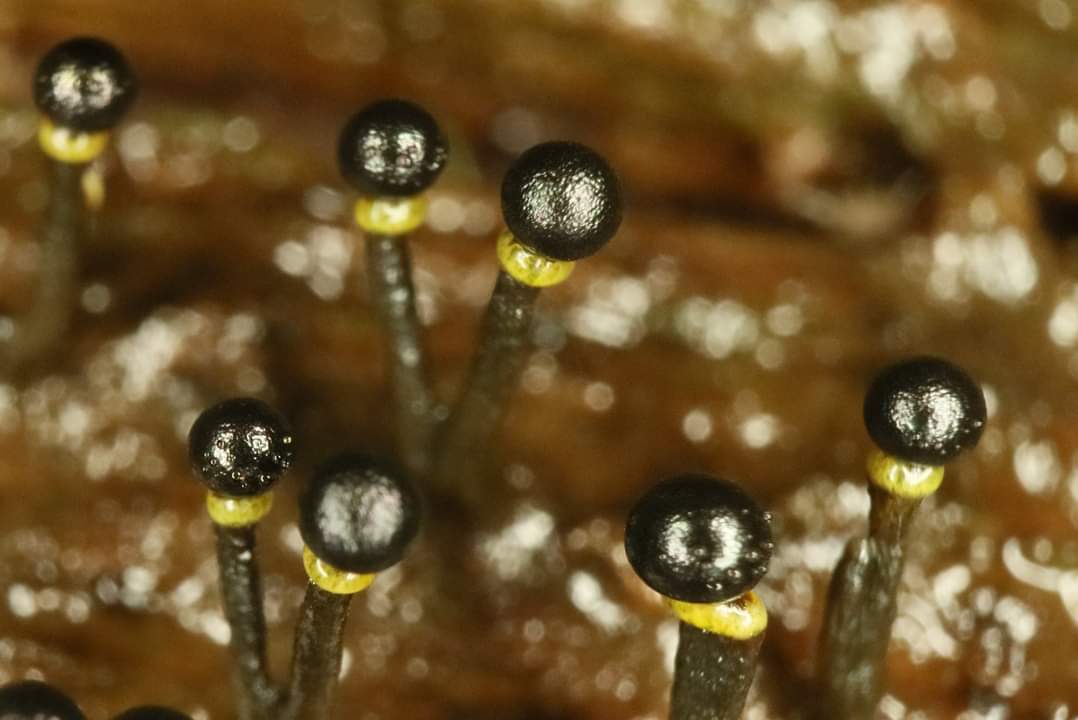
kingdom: Protozoa
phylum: Mycetozoa
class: Myxomycetes
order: Physarales
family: Elaeomyxaceae
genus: Elaeomyxa
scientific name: Elaeomyxa cerifera
